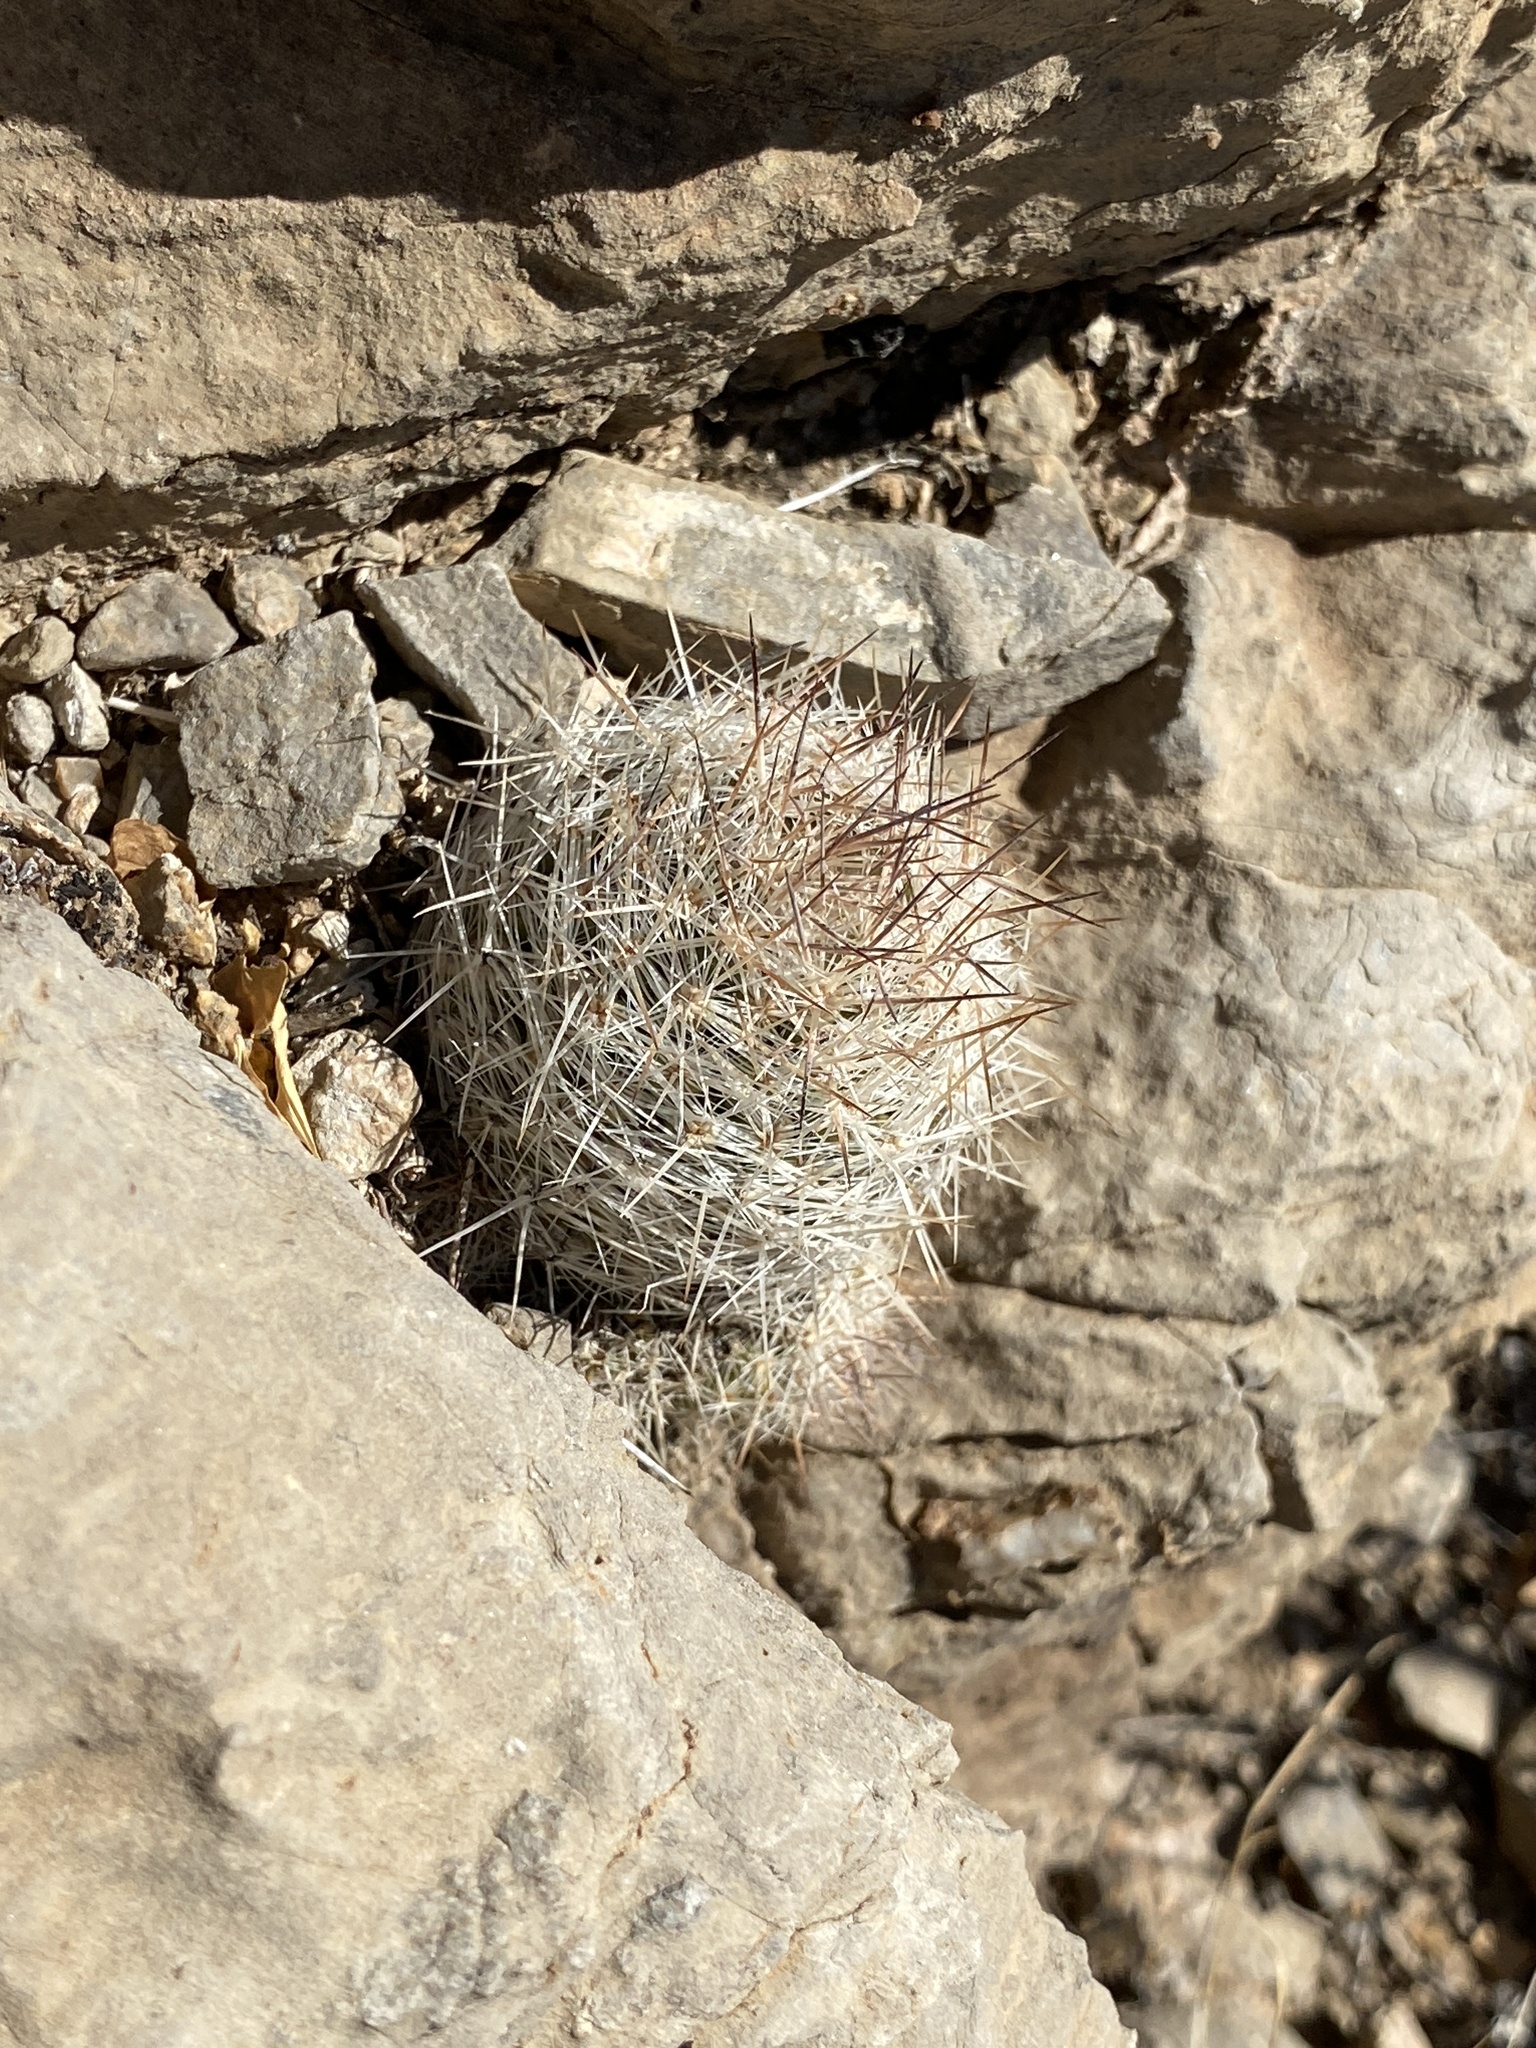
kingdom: Plantae
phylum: Tracheophyta
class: Magnoliopsida
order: Caryophyllales
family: Cactaceae
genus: Pelecyphora
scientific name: Pelecyphora tuberculosa
